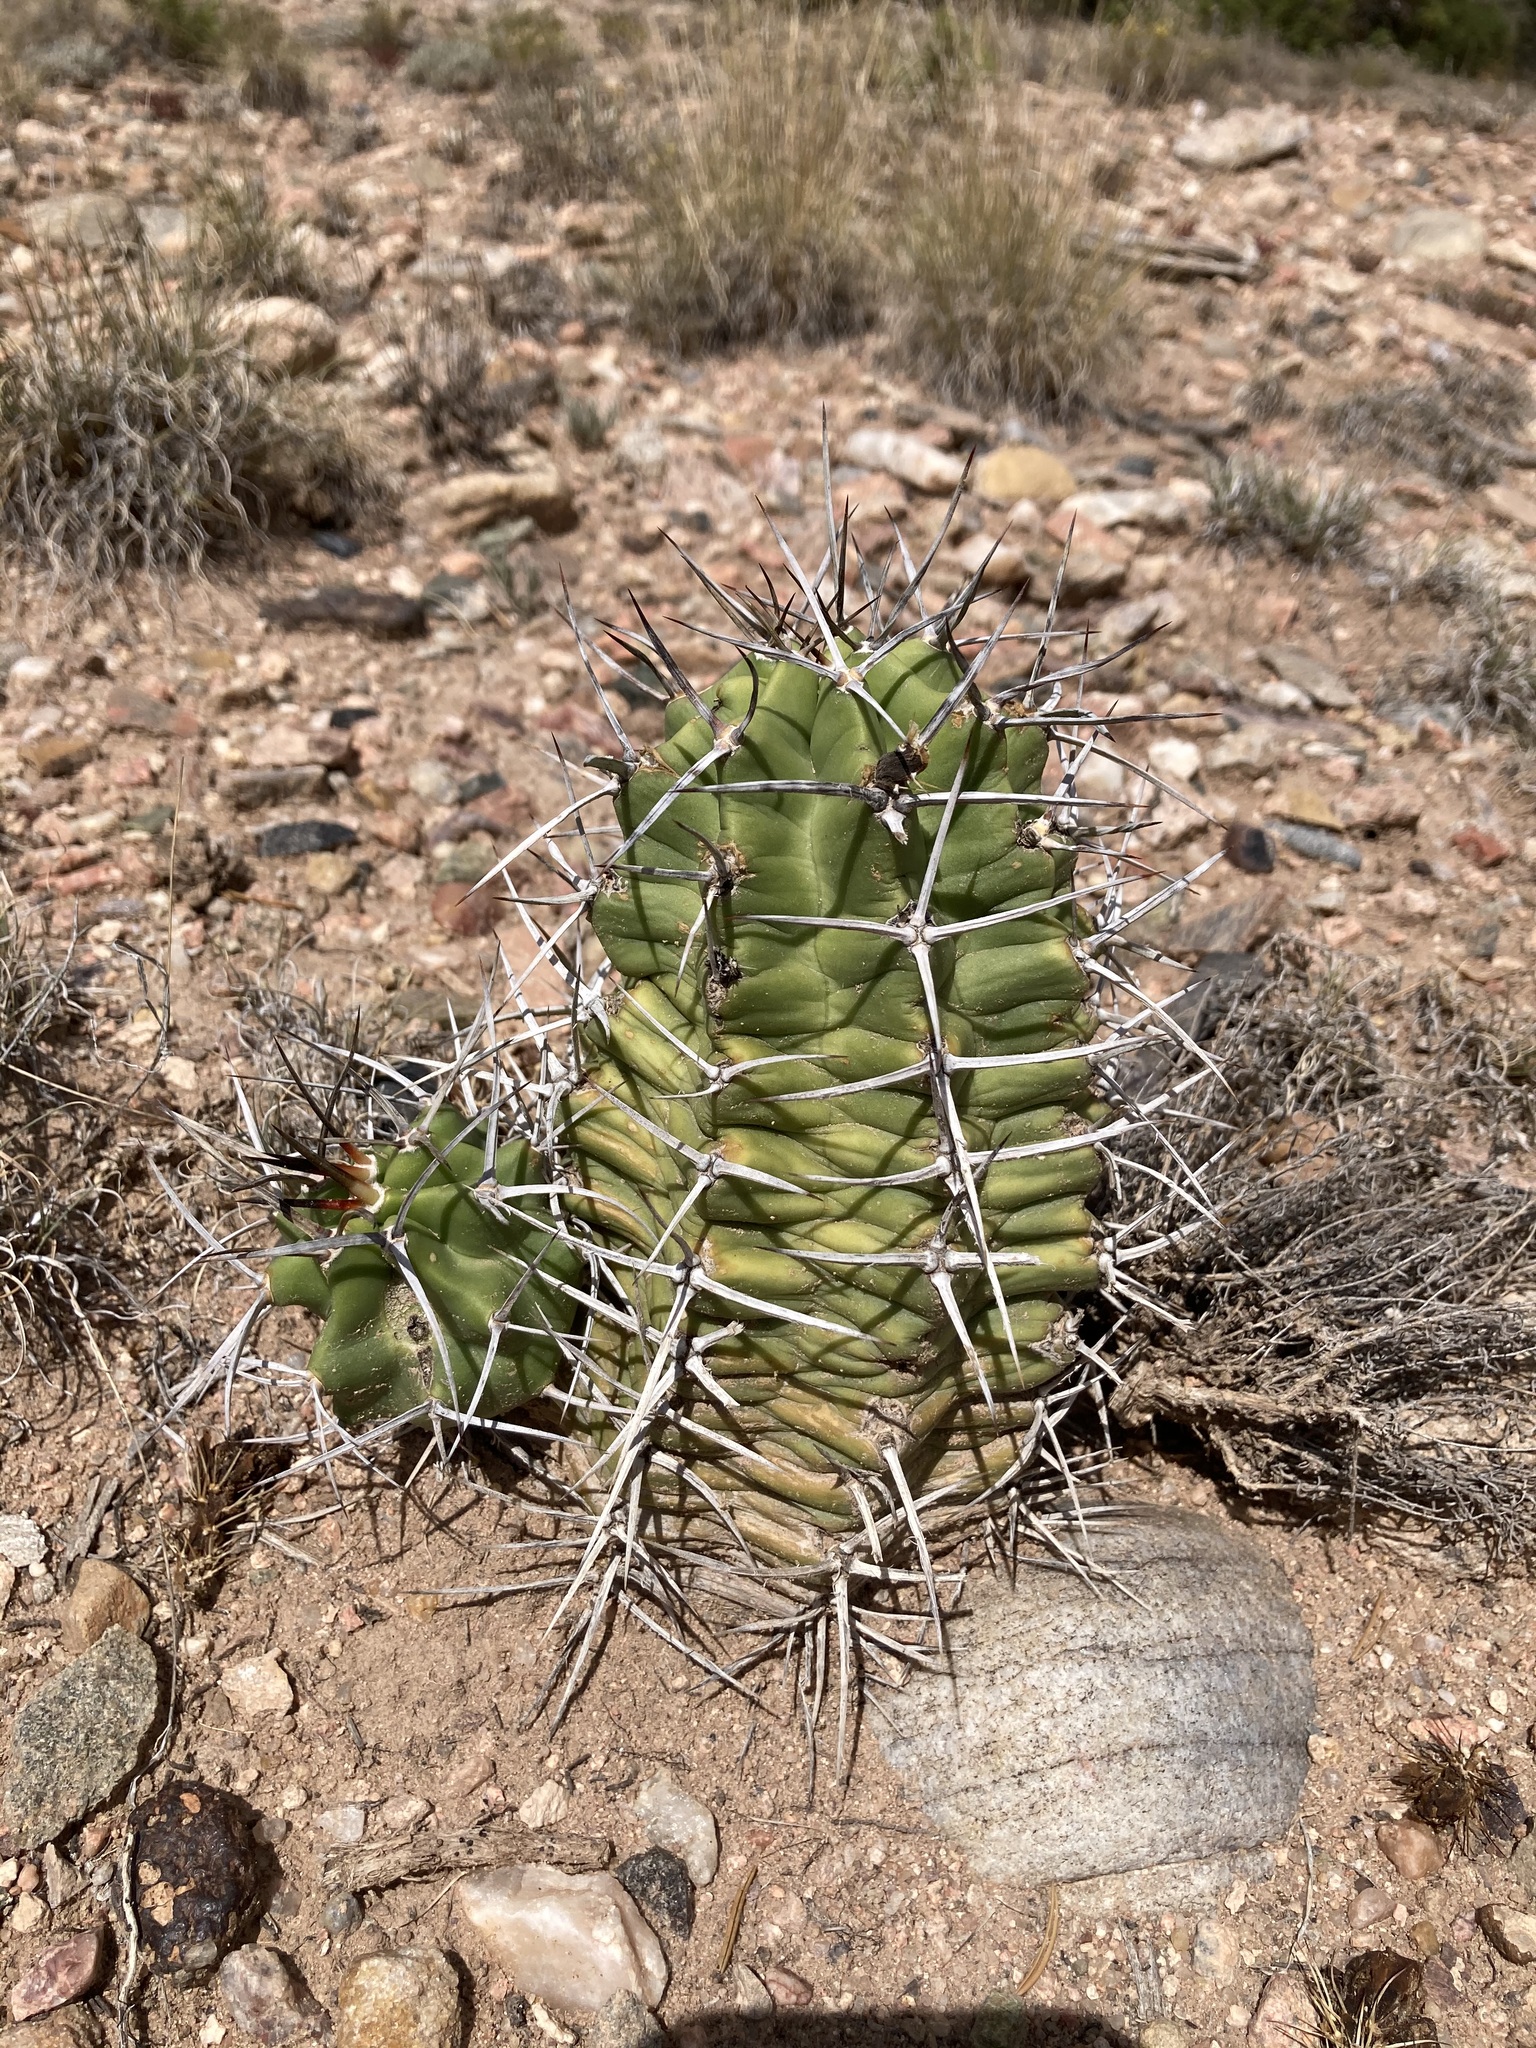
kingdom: Plantae
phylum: Tracheophyta
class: Magnoliopsida
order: Caryophyllales
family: Cactaceae
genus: Echinocereus
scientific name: Echinocereus triglochidiatus
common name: Claretcup hedgehog
